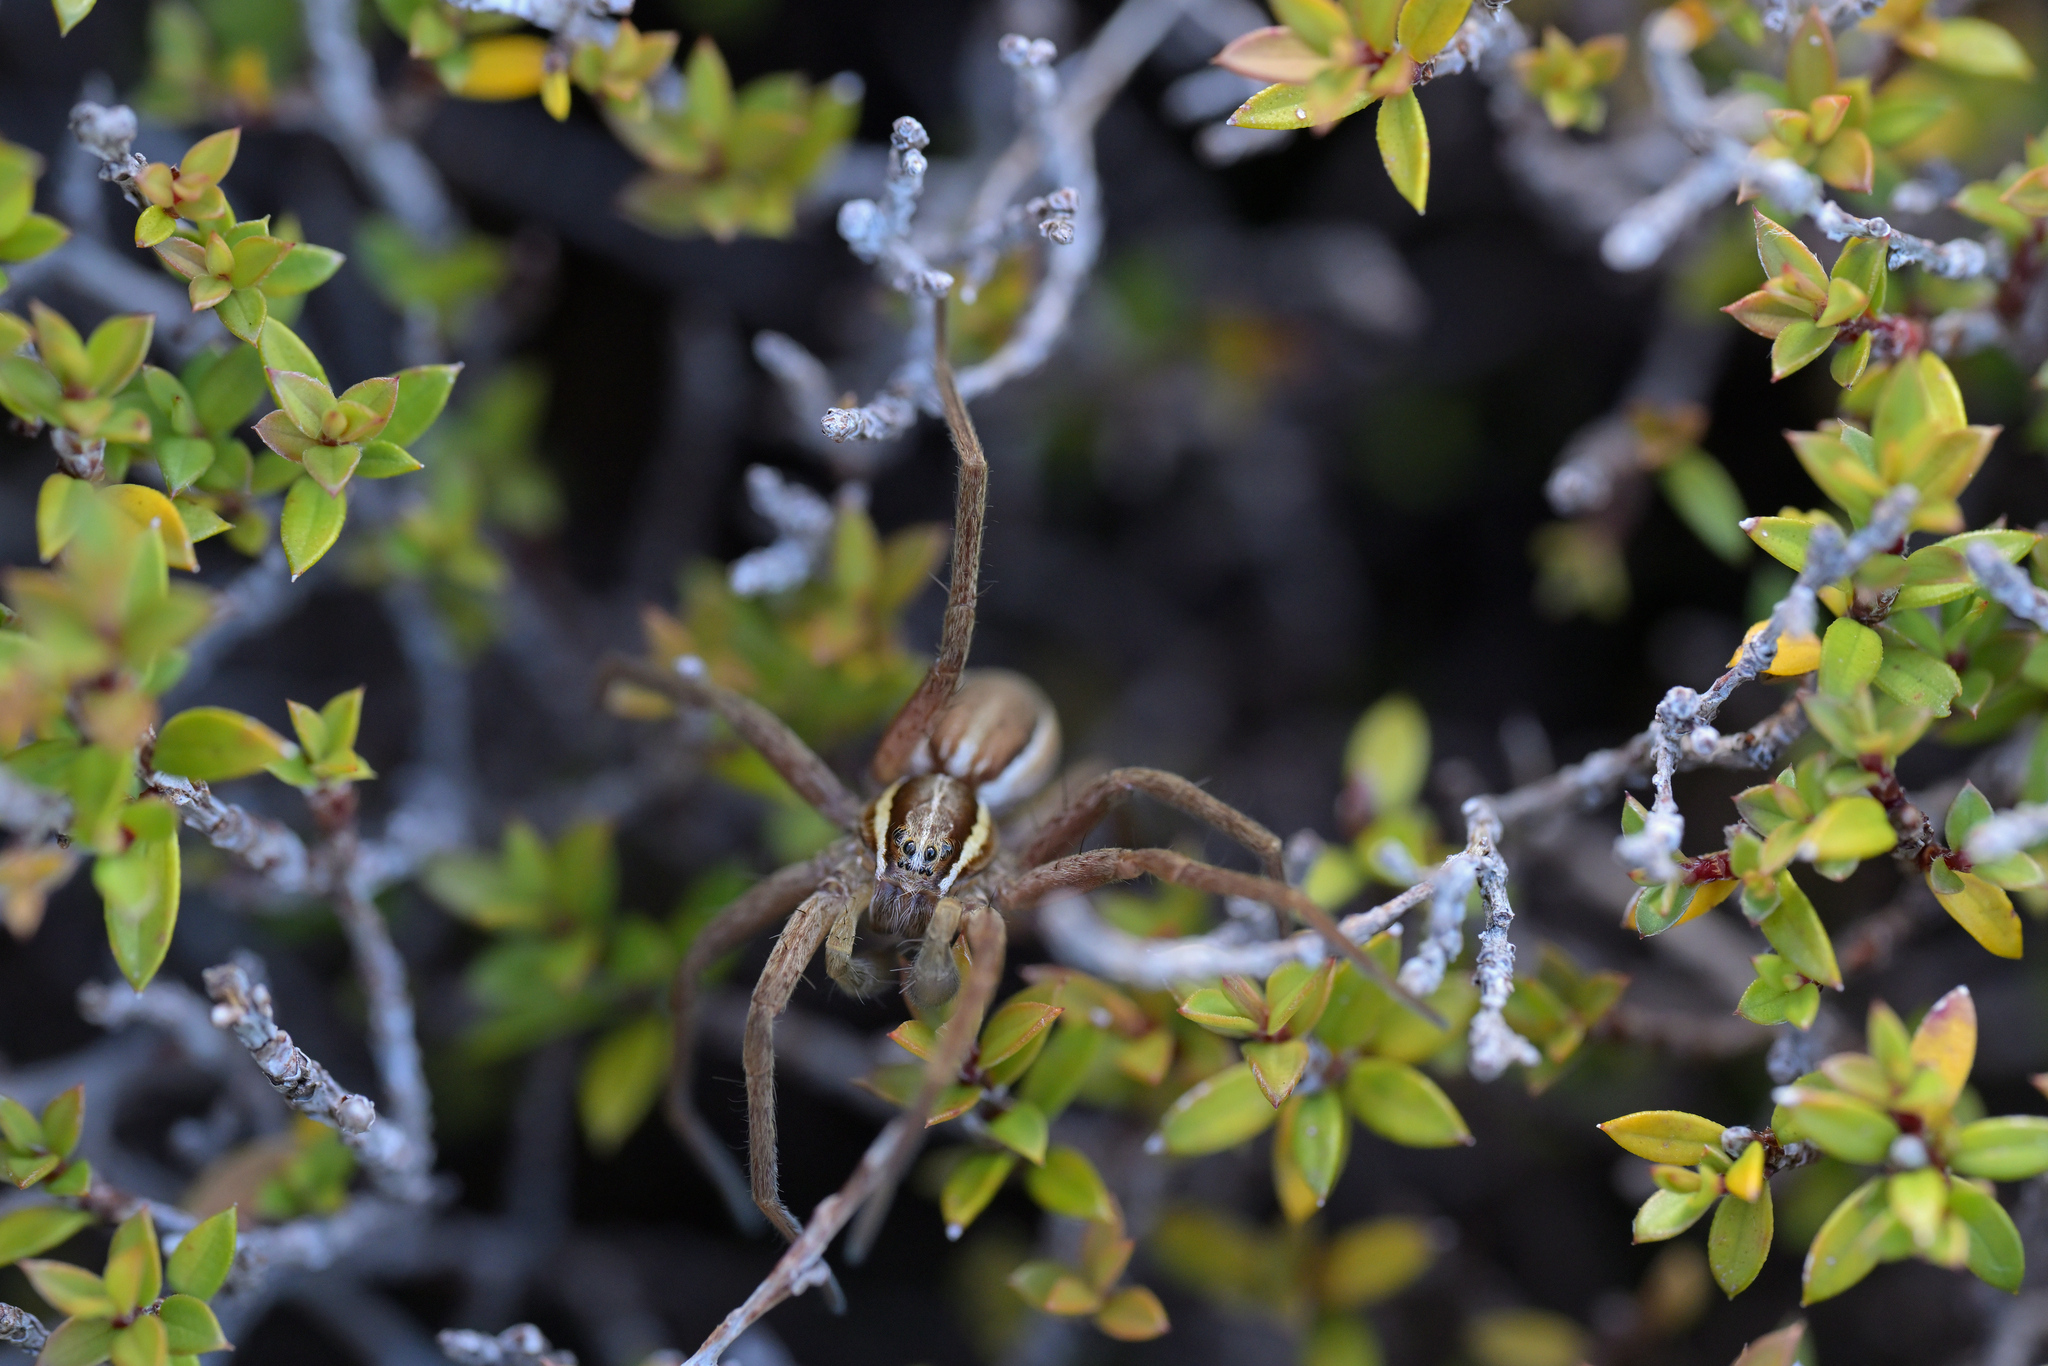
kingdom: Animalia
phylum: Arthropoda
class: Arachnida
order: Araneae
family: Pisauridae
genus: Dolomedes
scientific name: Dolomedes minor
